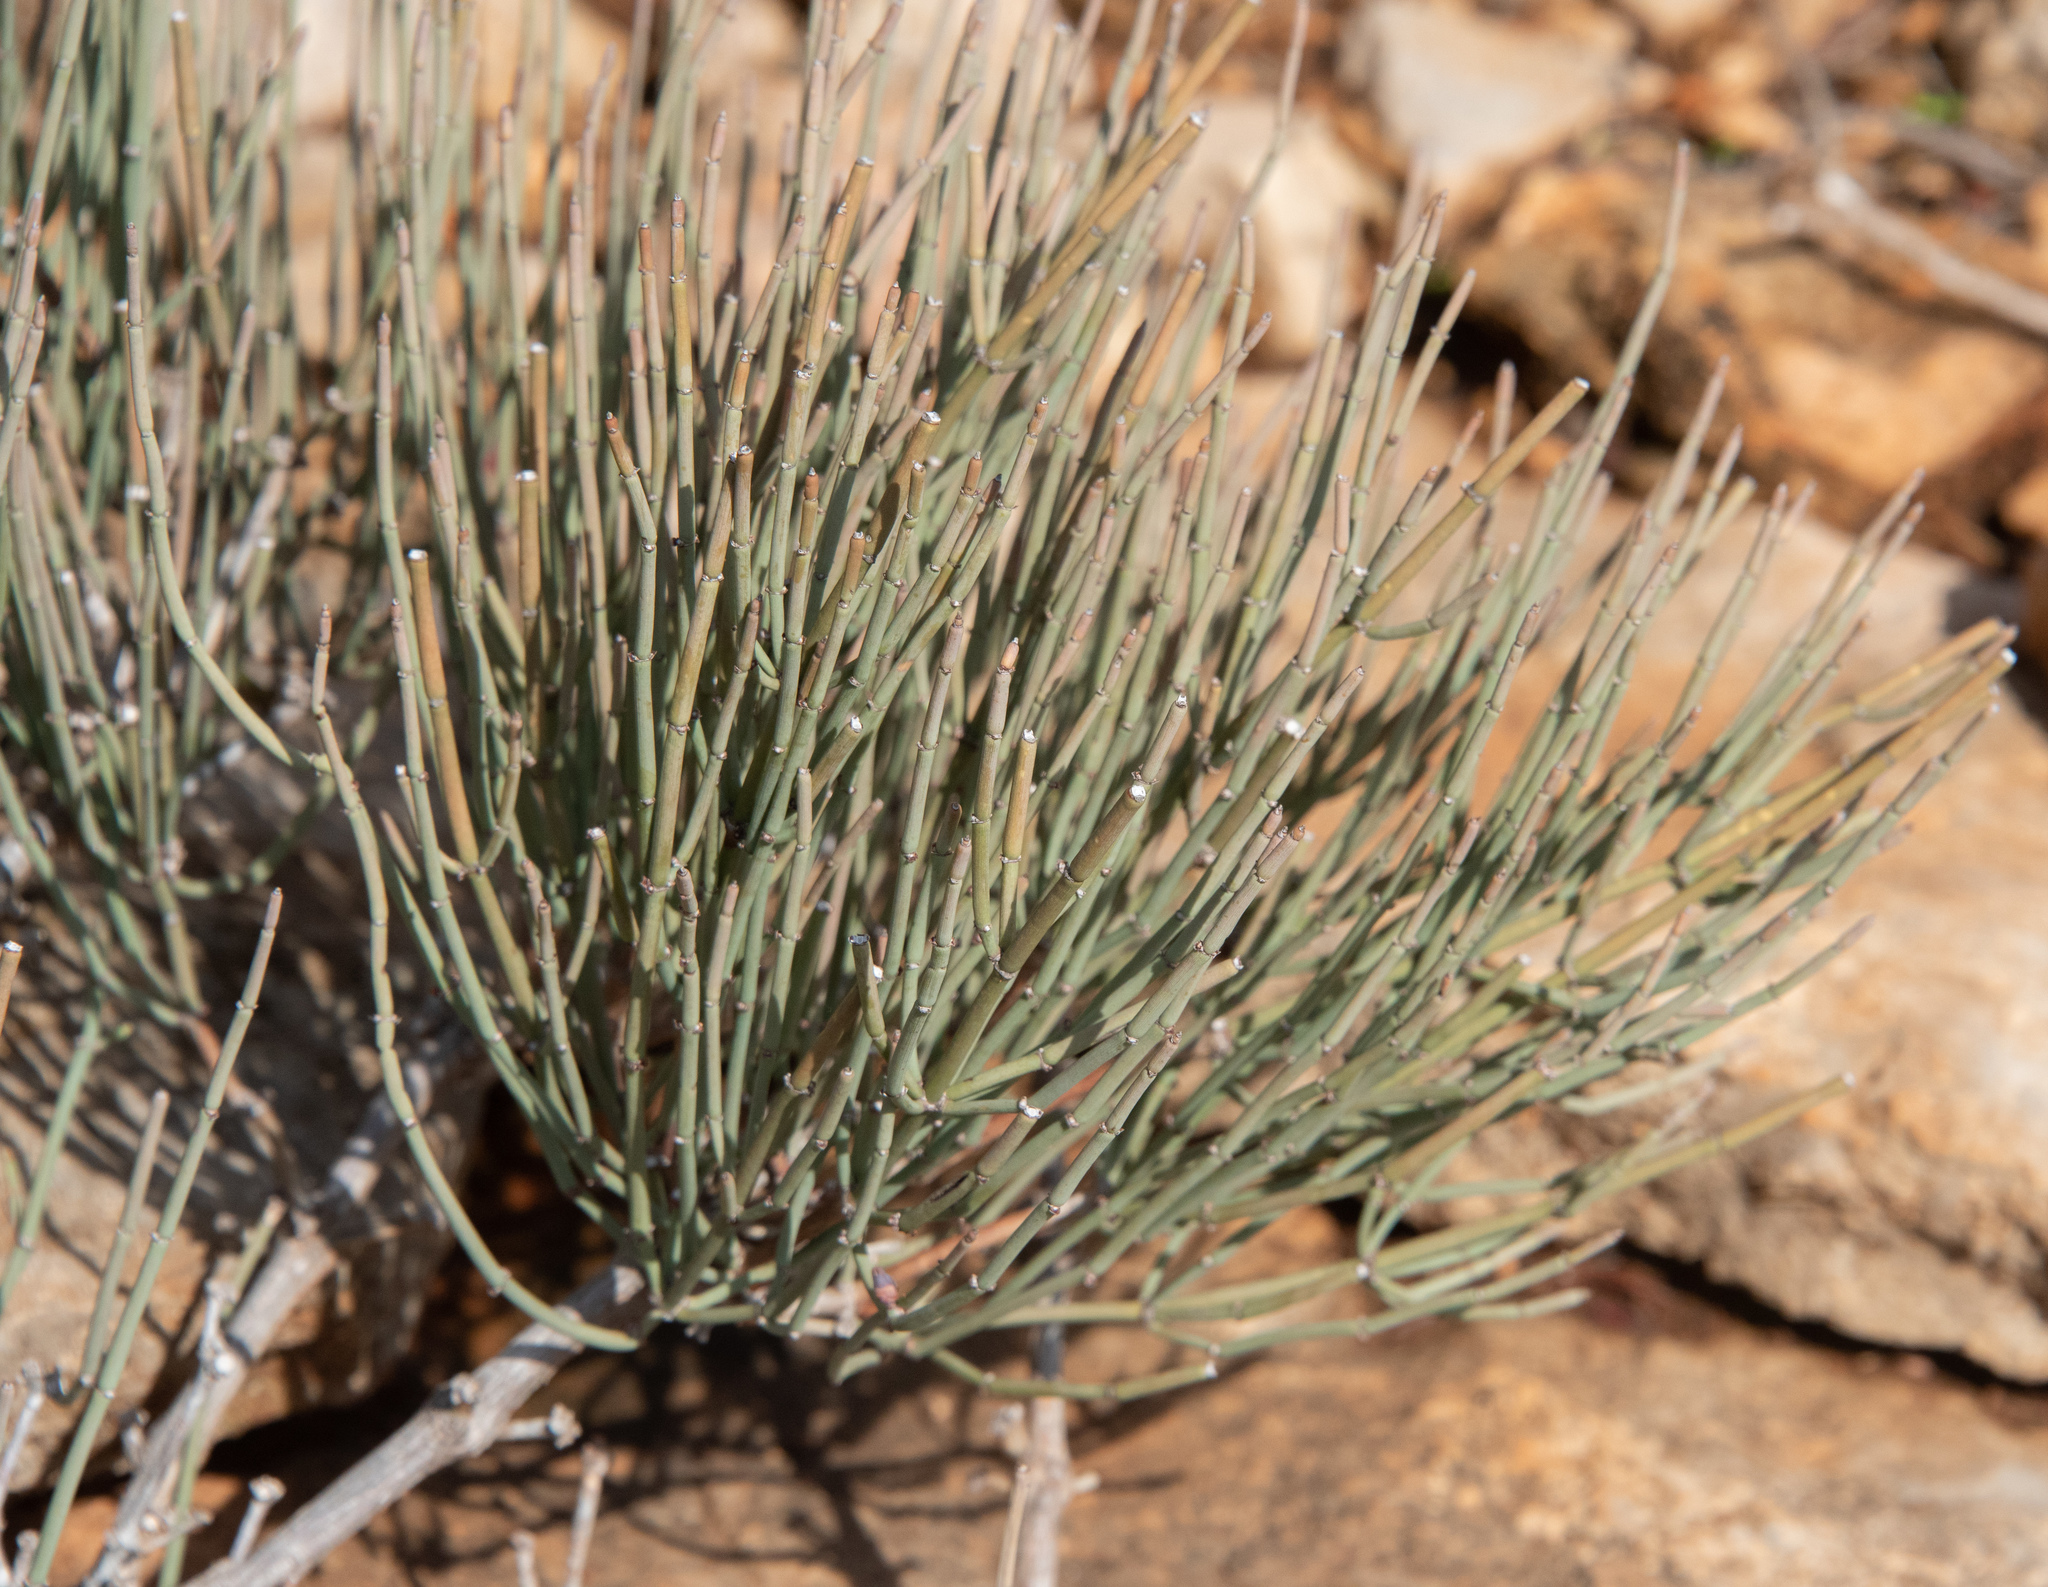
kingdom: Plantae
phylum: Tracheophyta
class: Gnetopsida
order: Ephedrales
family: Ephedraceae
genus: Ephedra
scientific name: Ephedra fragilis
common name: Joint pine
